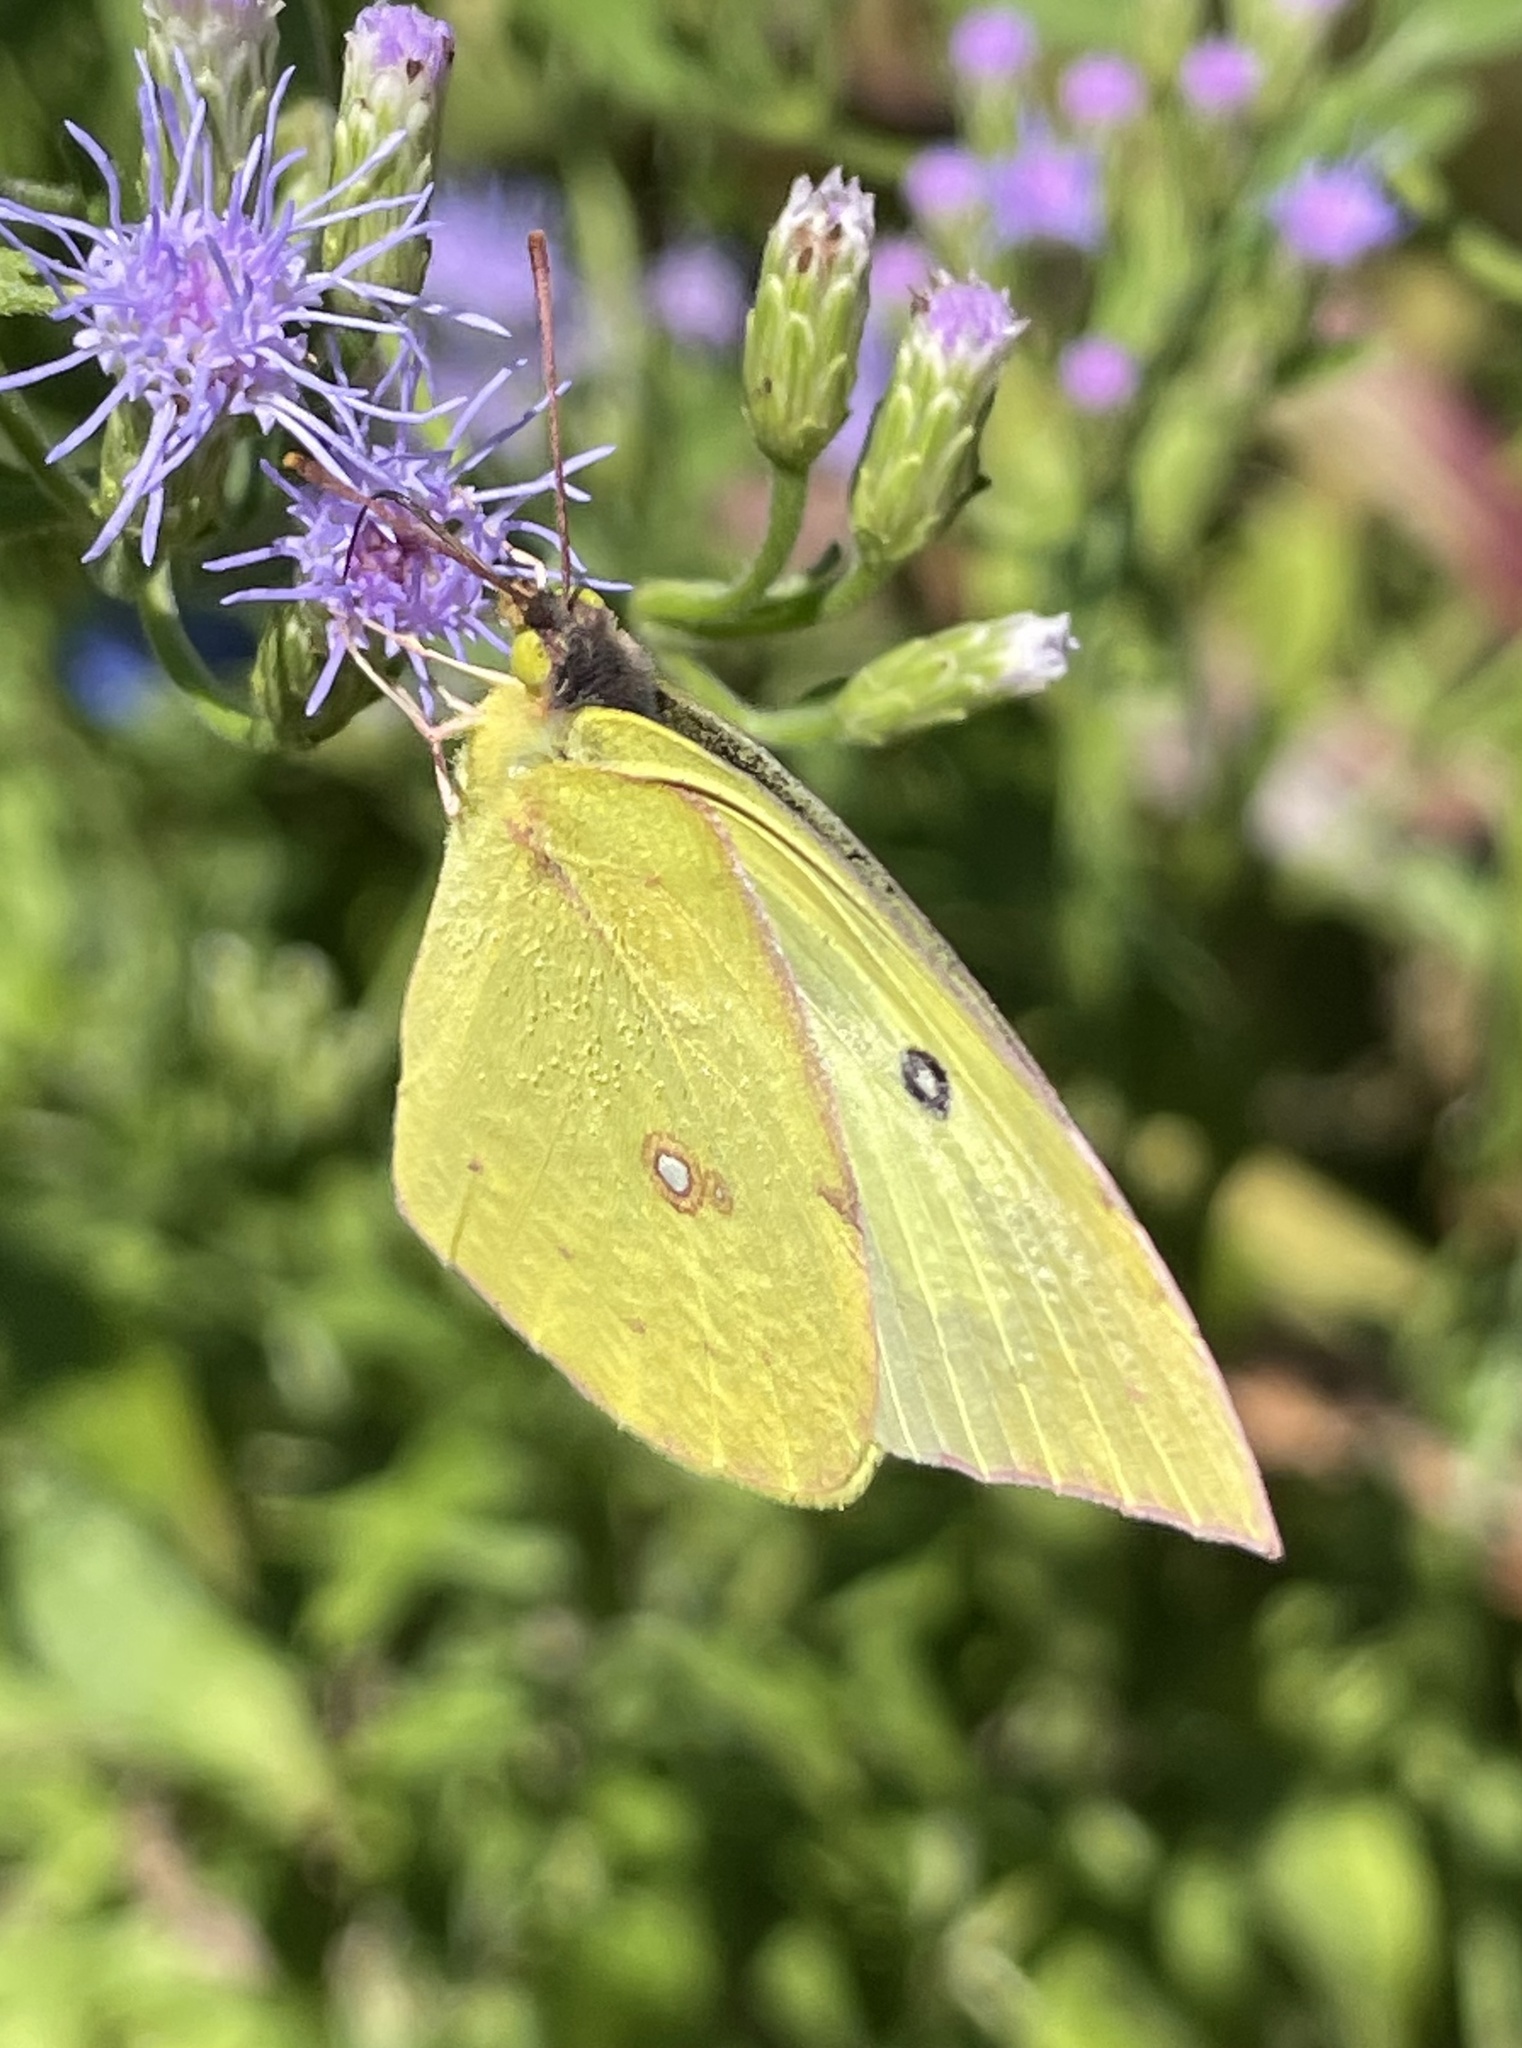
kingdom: Animalia
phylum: Arthropoda
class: Insecta
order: Lepidoptera
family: Pieridae
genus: Zerene
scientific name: Zerene cesonia
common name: Southern dogface
